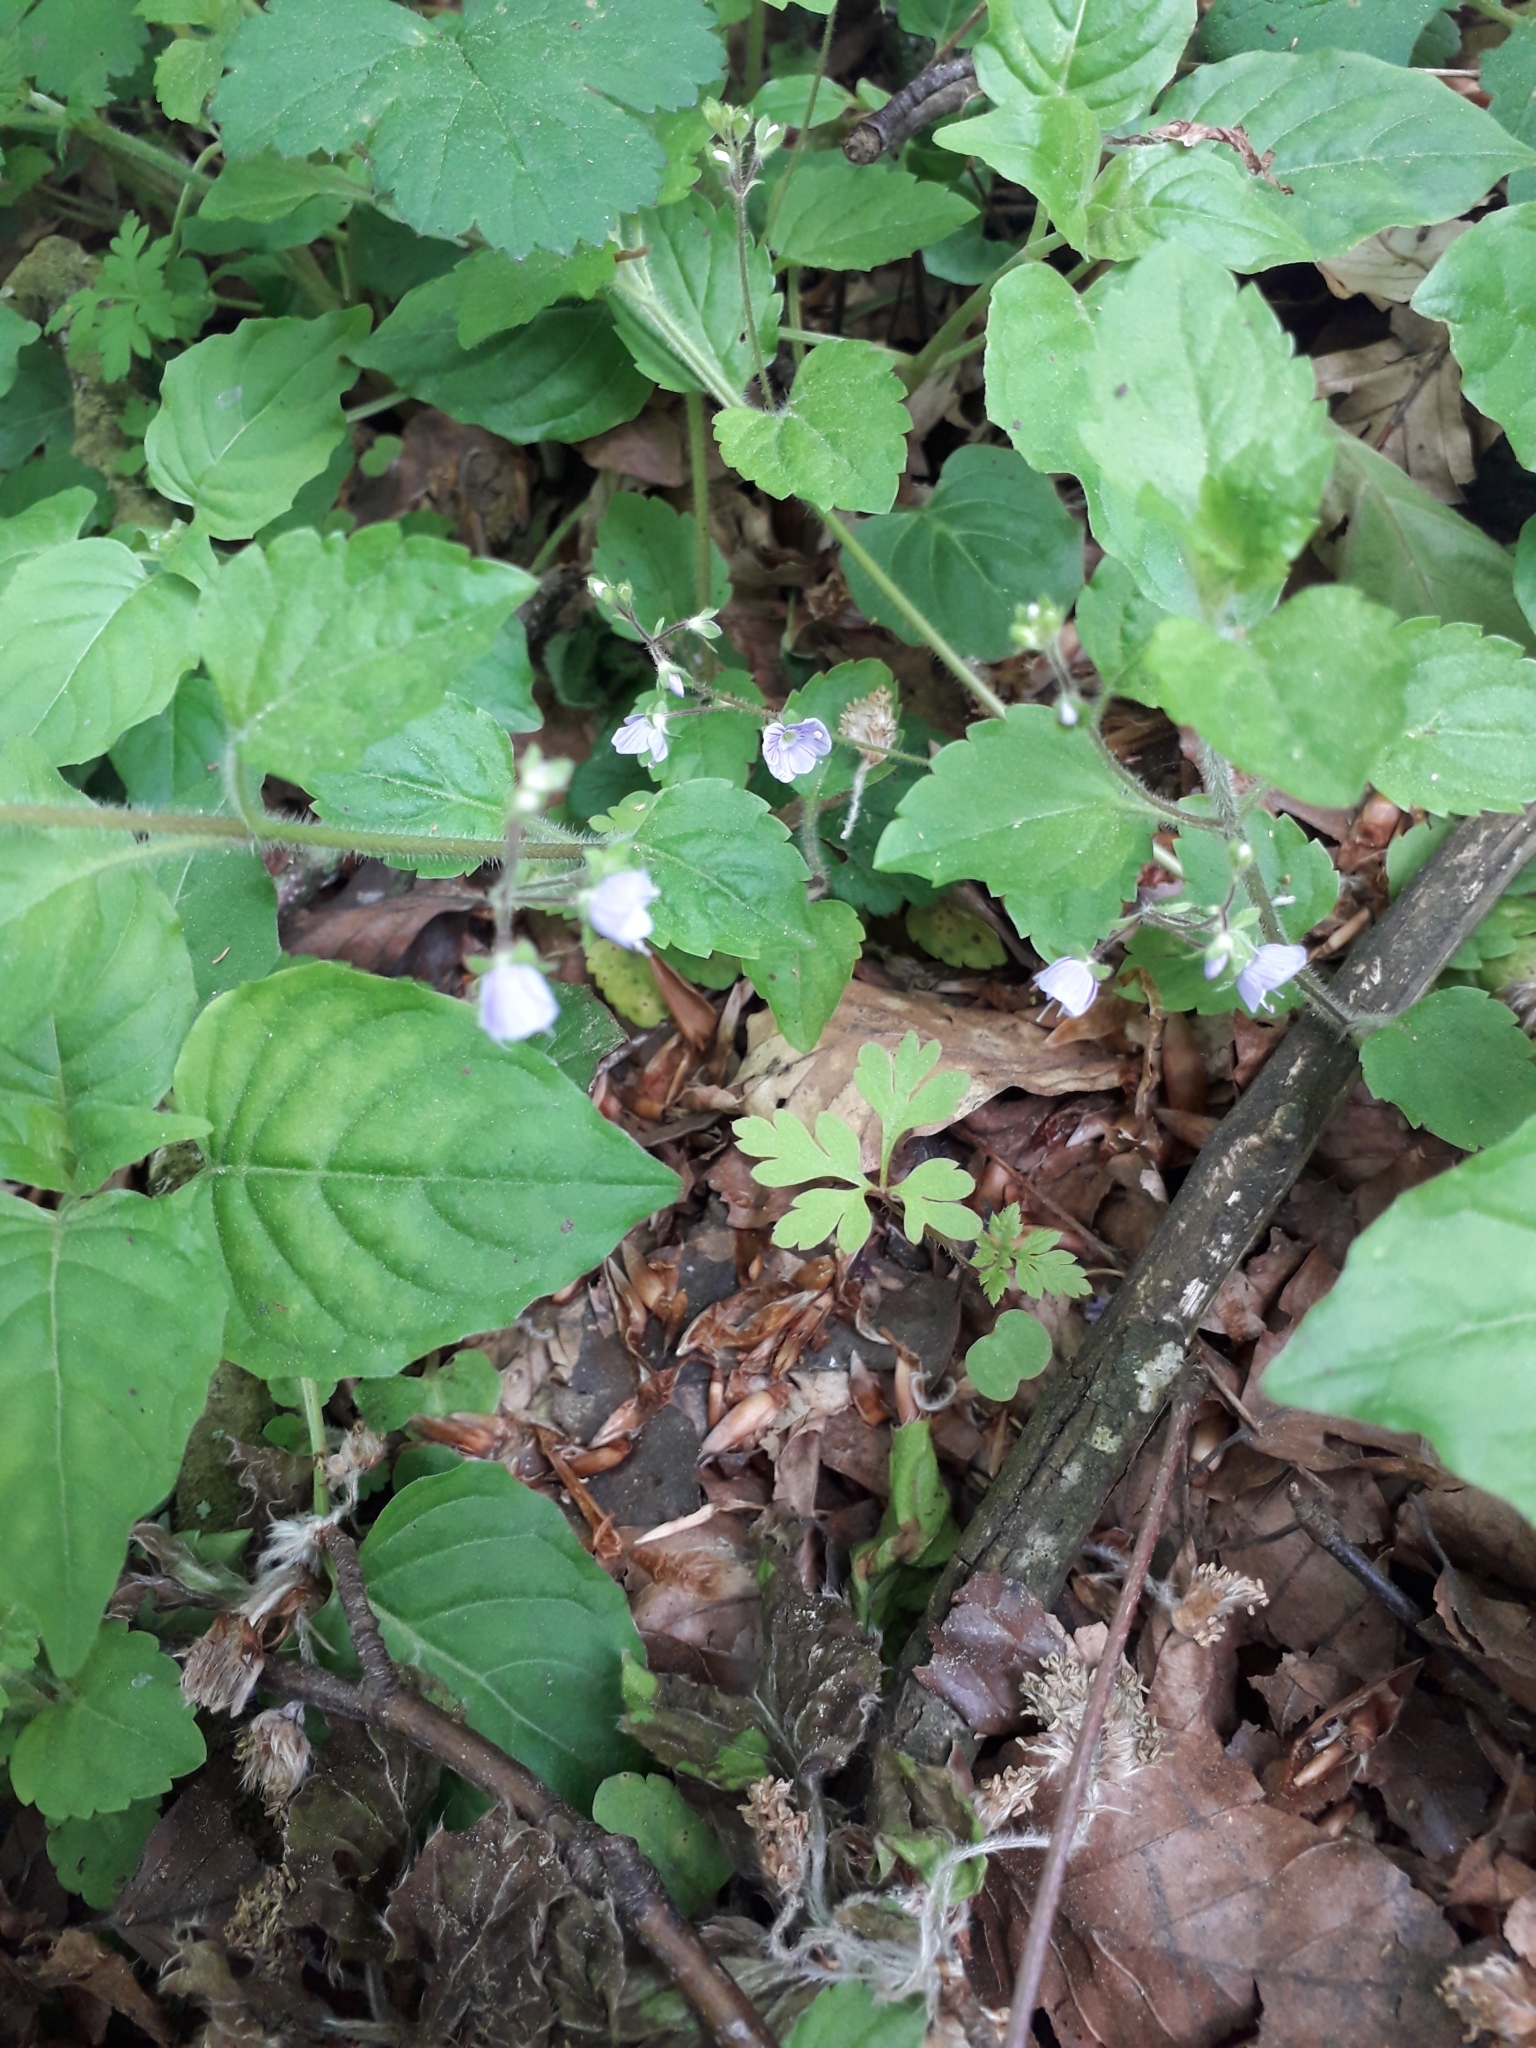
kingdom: Plantae
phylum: Tracheophyta
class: Magnoliopsida
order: Myrtales
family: Onagraceae
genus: Circaea
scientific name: Circaea lutetiana
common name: Enchanter's-nightshade
